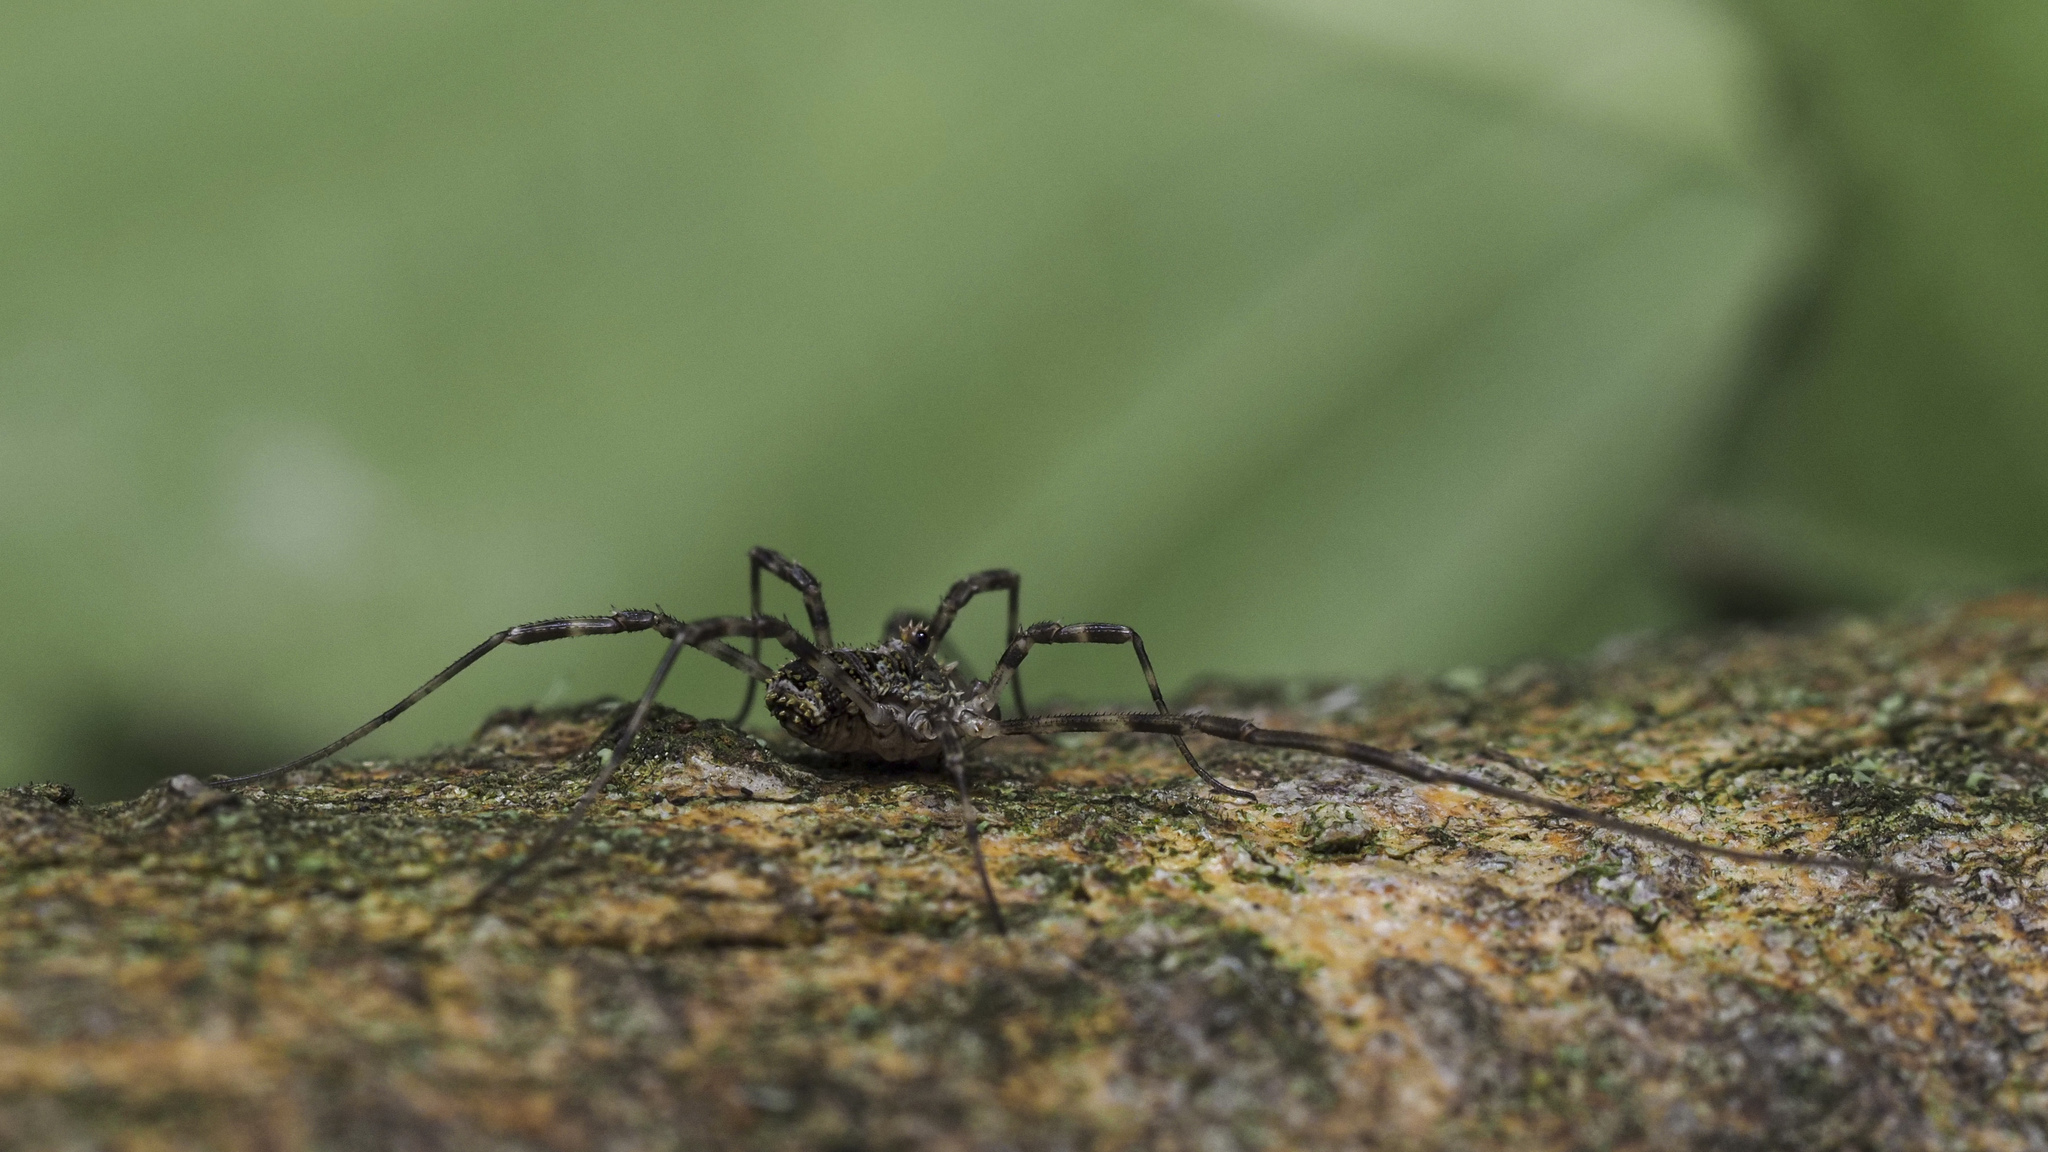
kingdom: Animalia
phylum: Arthropoda
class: Arachnida
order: Opiliones
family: Phalangiidae
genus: Lacinius
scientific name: Lacinius dentiger
